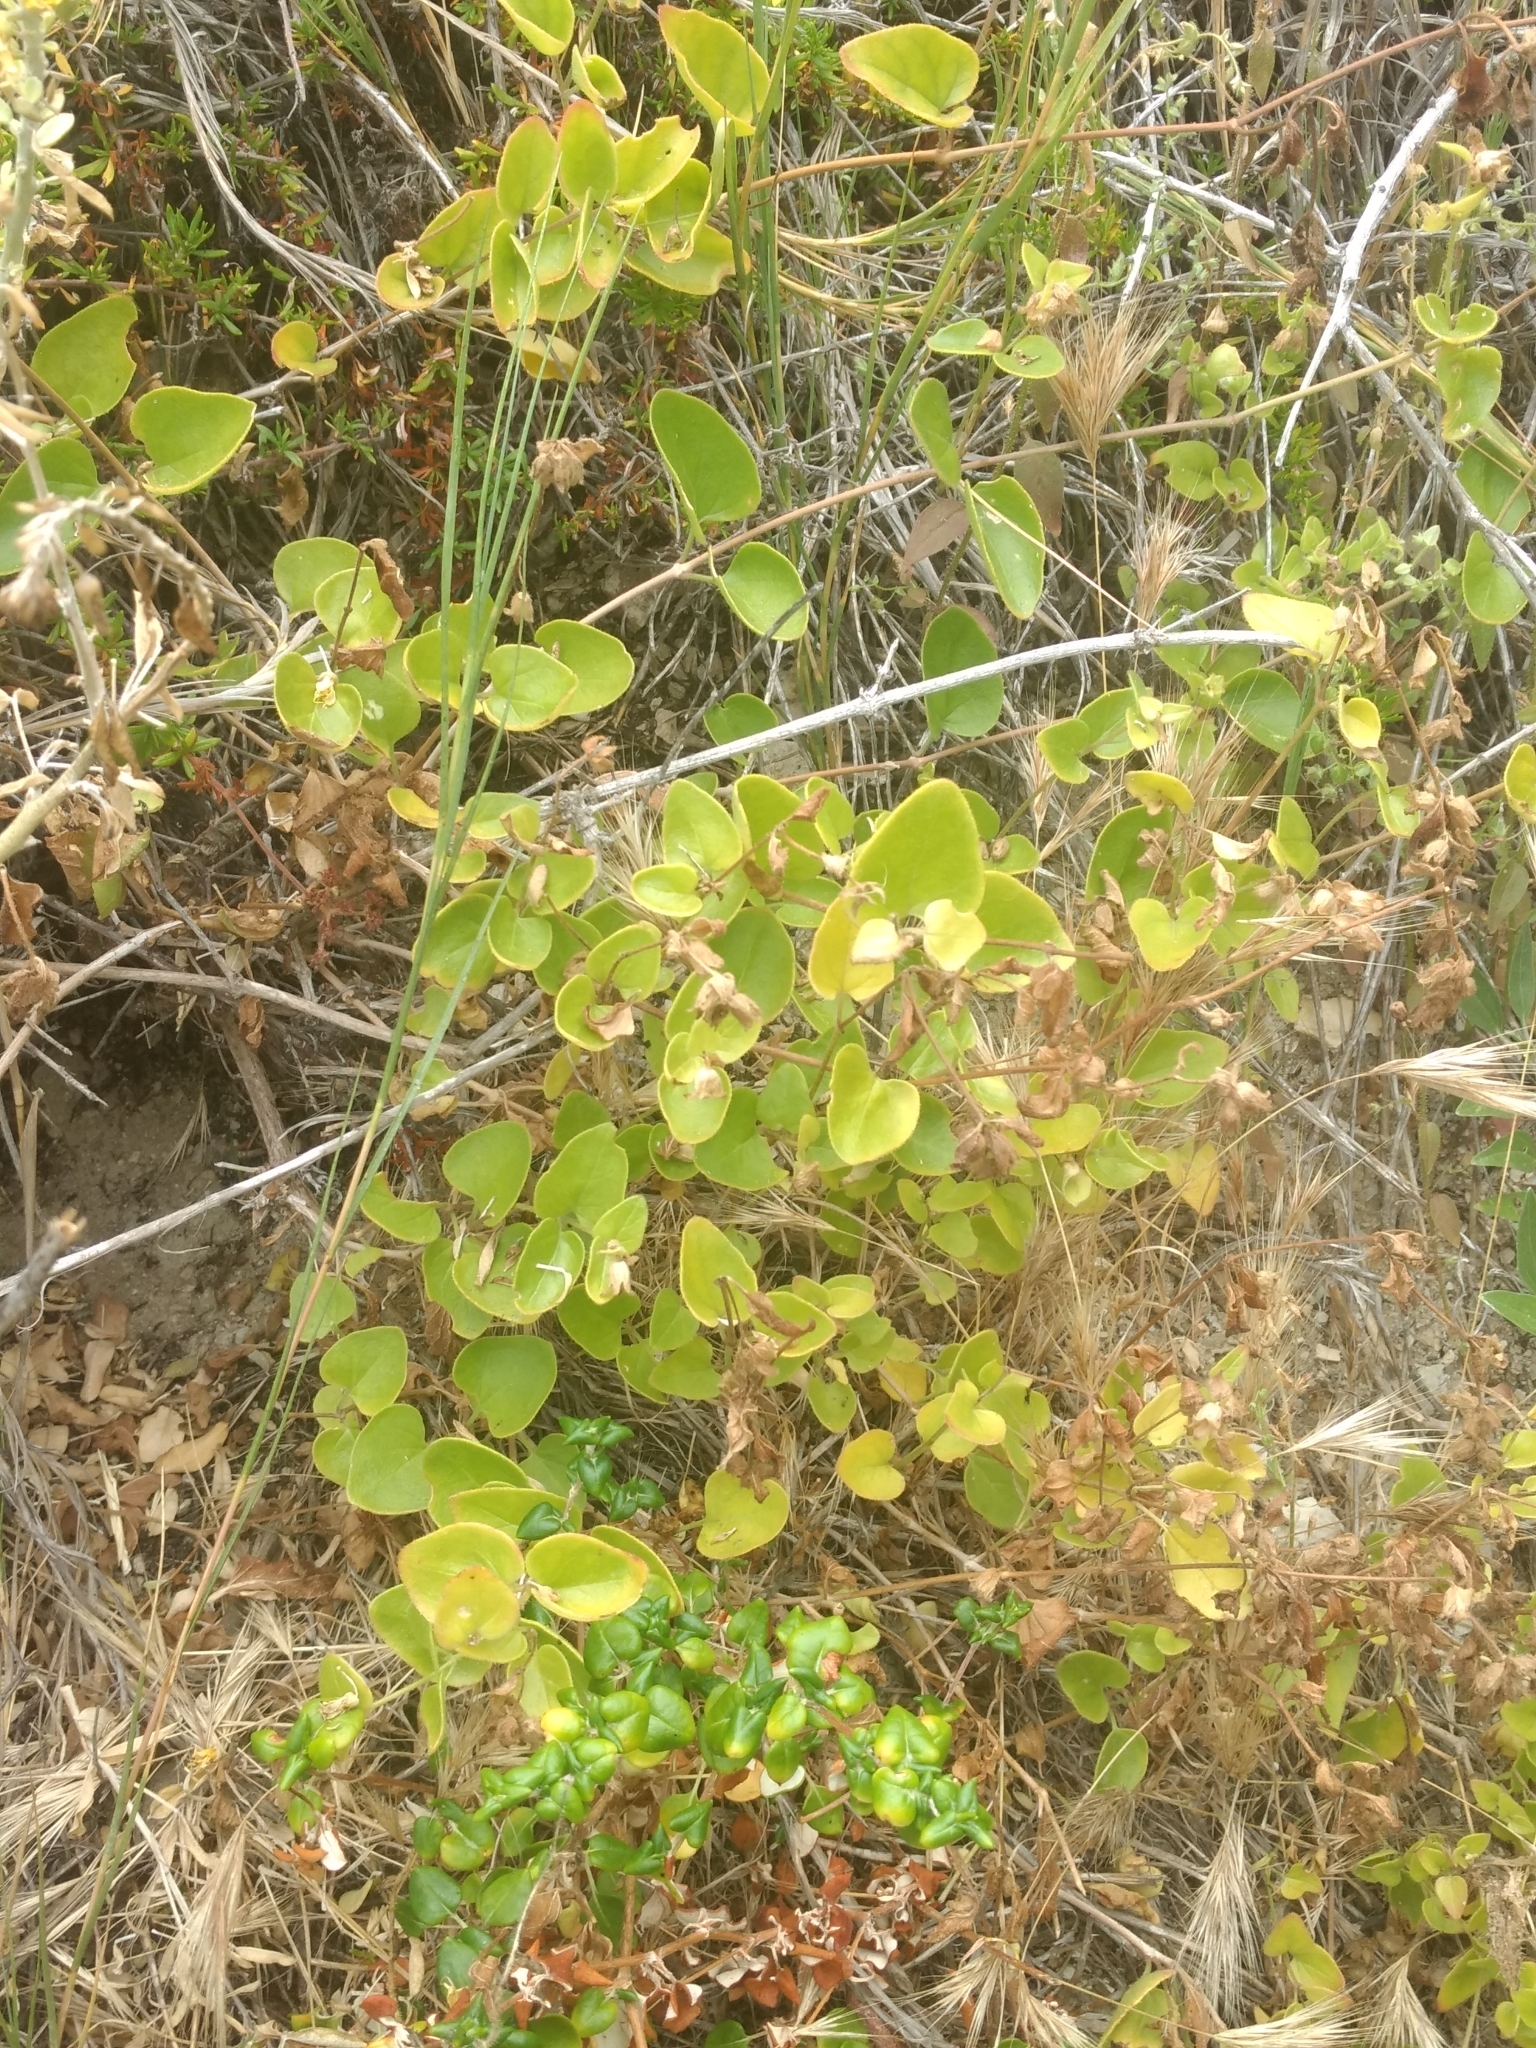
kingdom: Plantae
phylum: Tracheophyta
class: Magnoliopsida
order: Caryophyllales
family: Nyctaginaceae
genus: Mirabilis
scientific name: Mirabilis laevis
